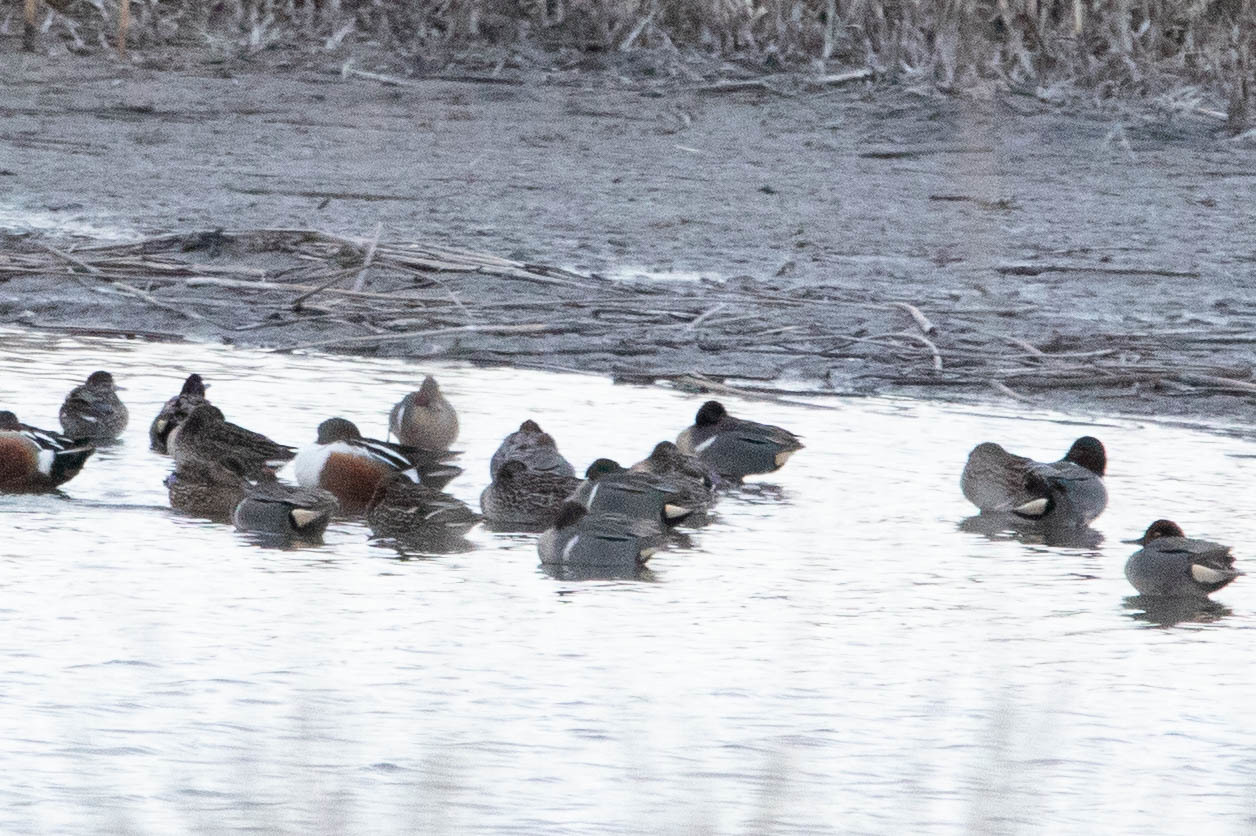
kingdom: Animalia
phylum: Chordata
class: Aves
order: Anseriformes
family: Anatidae
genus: Anas
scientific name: Anas carolinensis
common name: Green-winged teal
